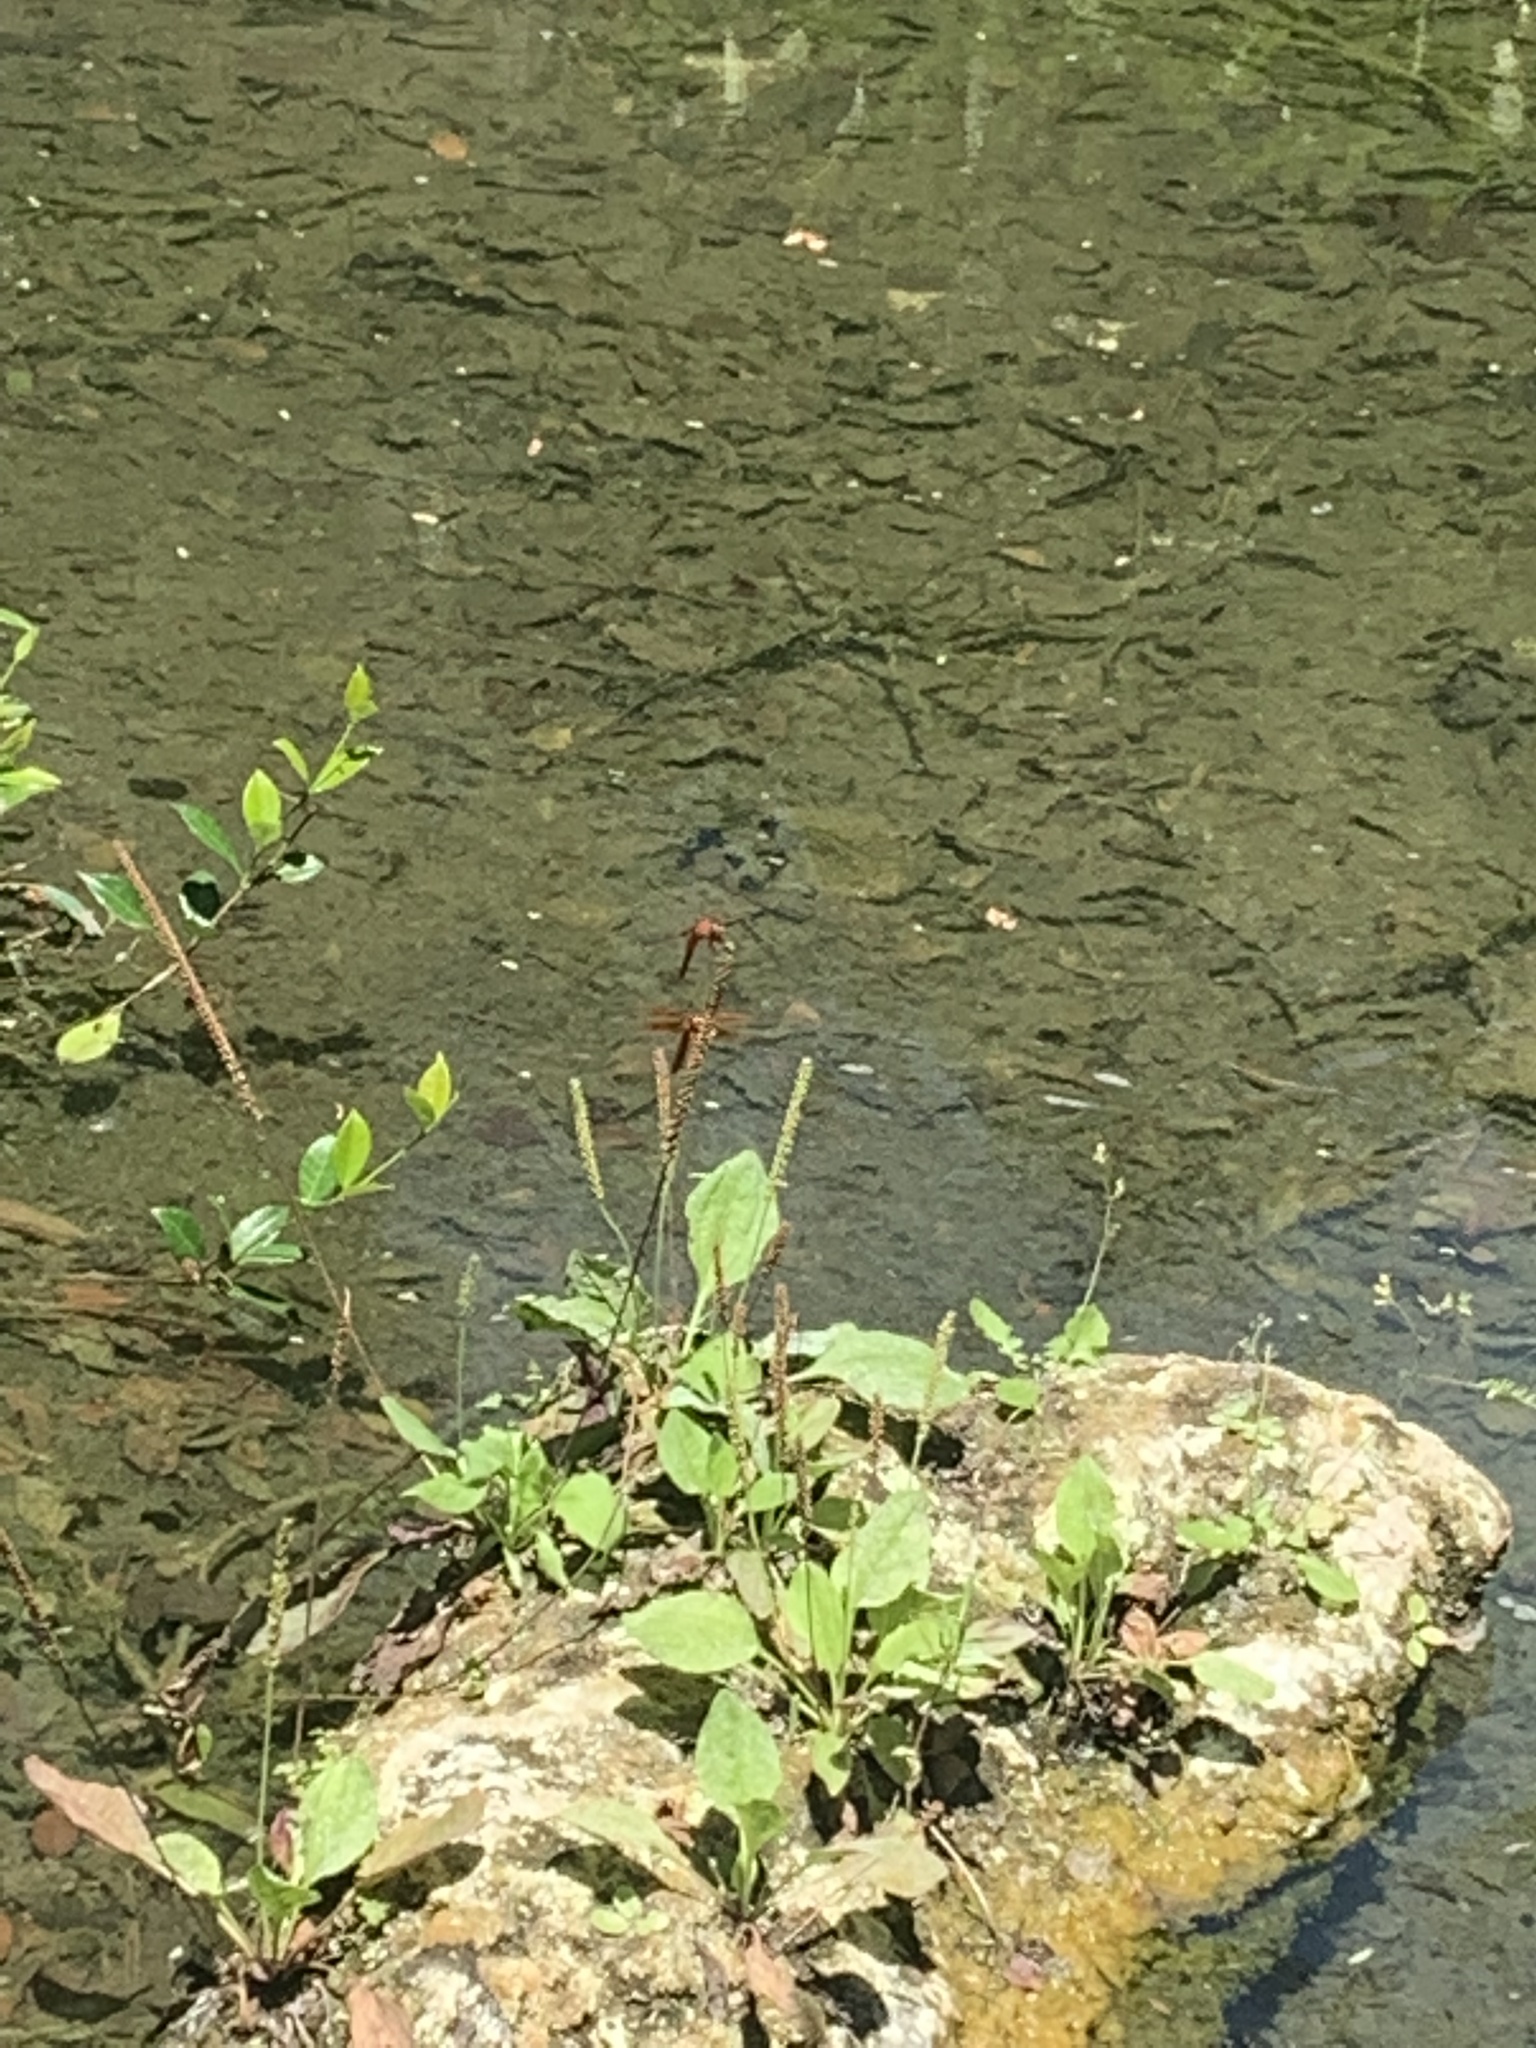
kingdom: Animalia
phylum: Arthropoda
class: Insecta
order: Odonata
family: Libellulidae
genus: Libellula
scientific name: Libellula saturata
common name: Flame skimmer
